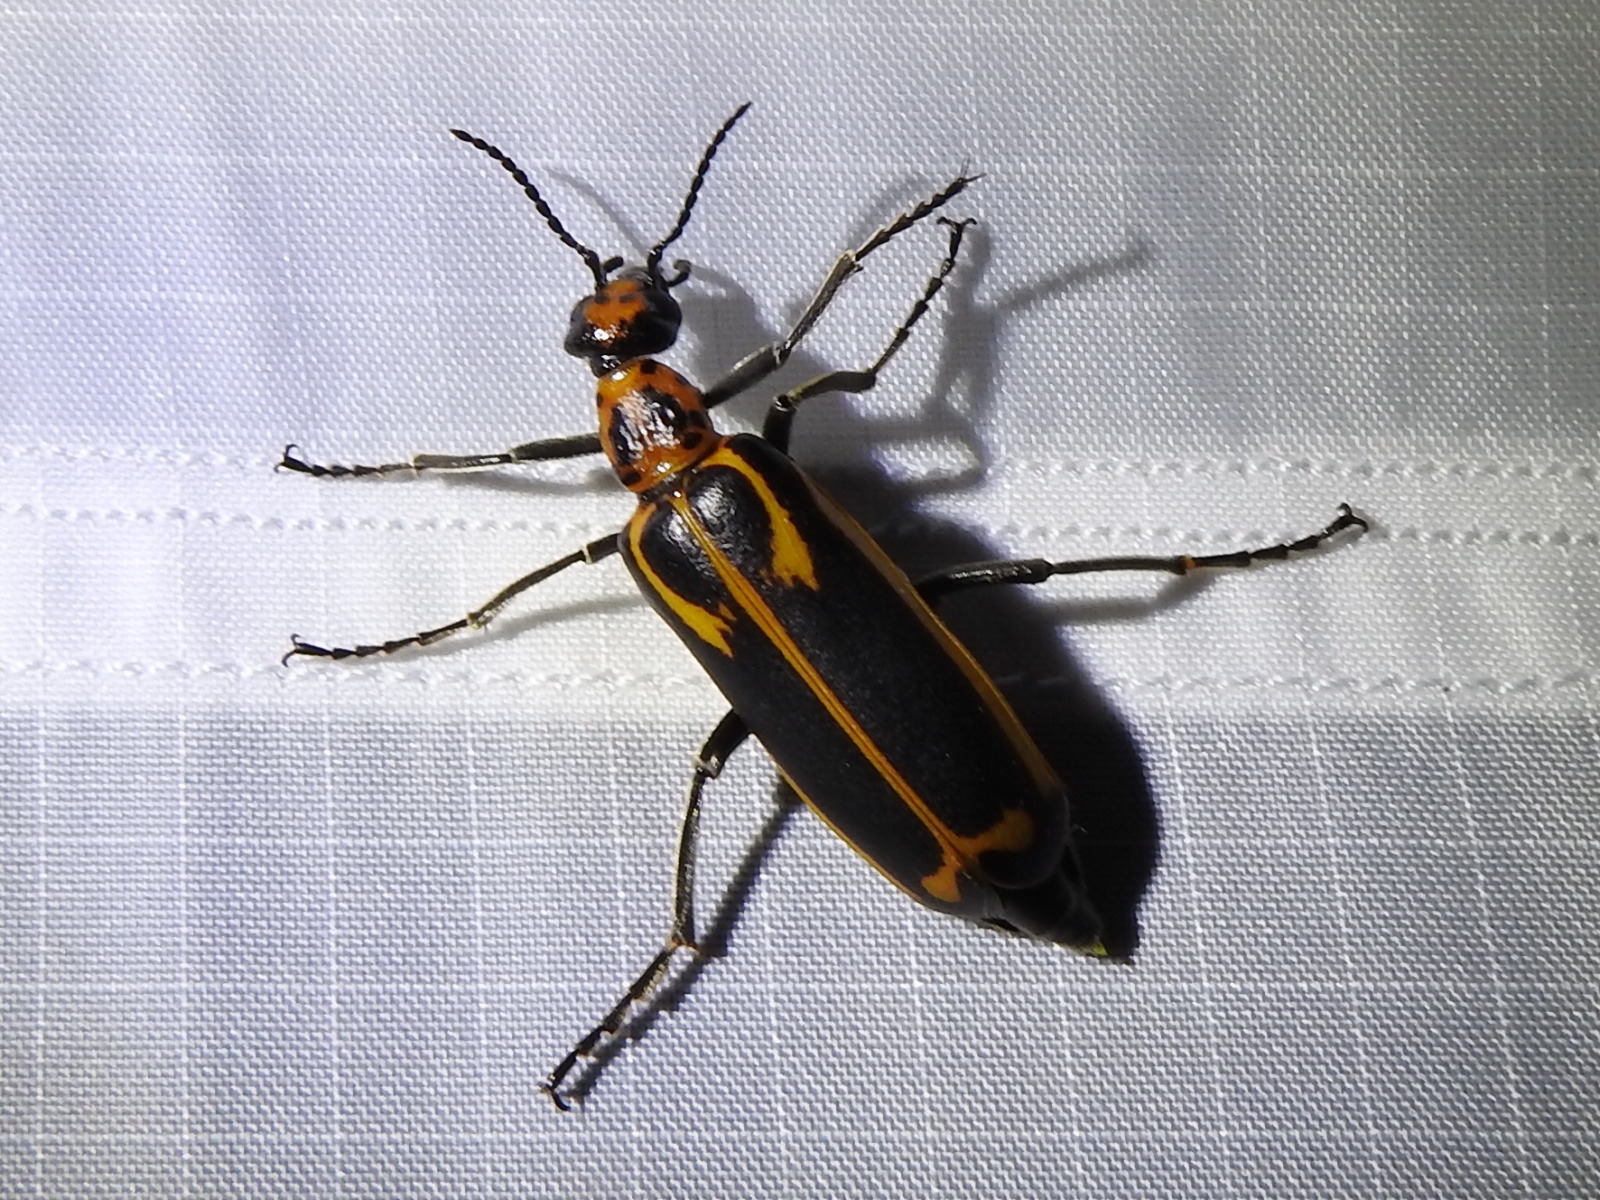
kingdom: Animalia
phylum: Arthropoda
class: Insecta
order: Coleoptera
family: Meloidae
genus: Pyrota
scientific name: Pyrota insulata
